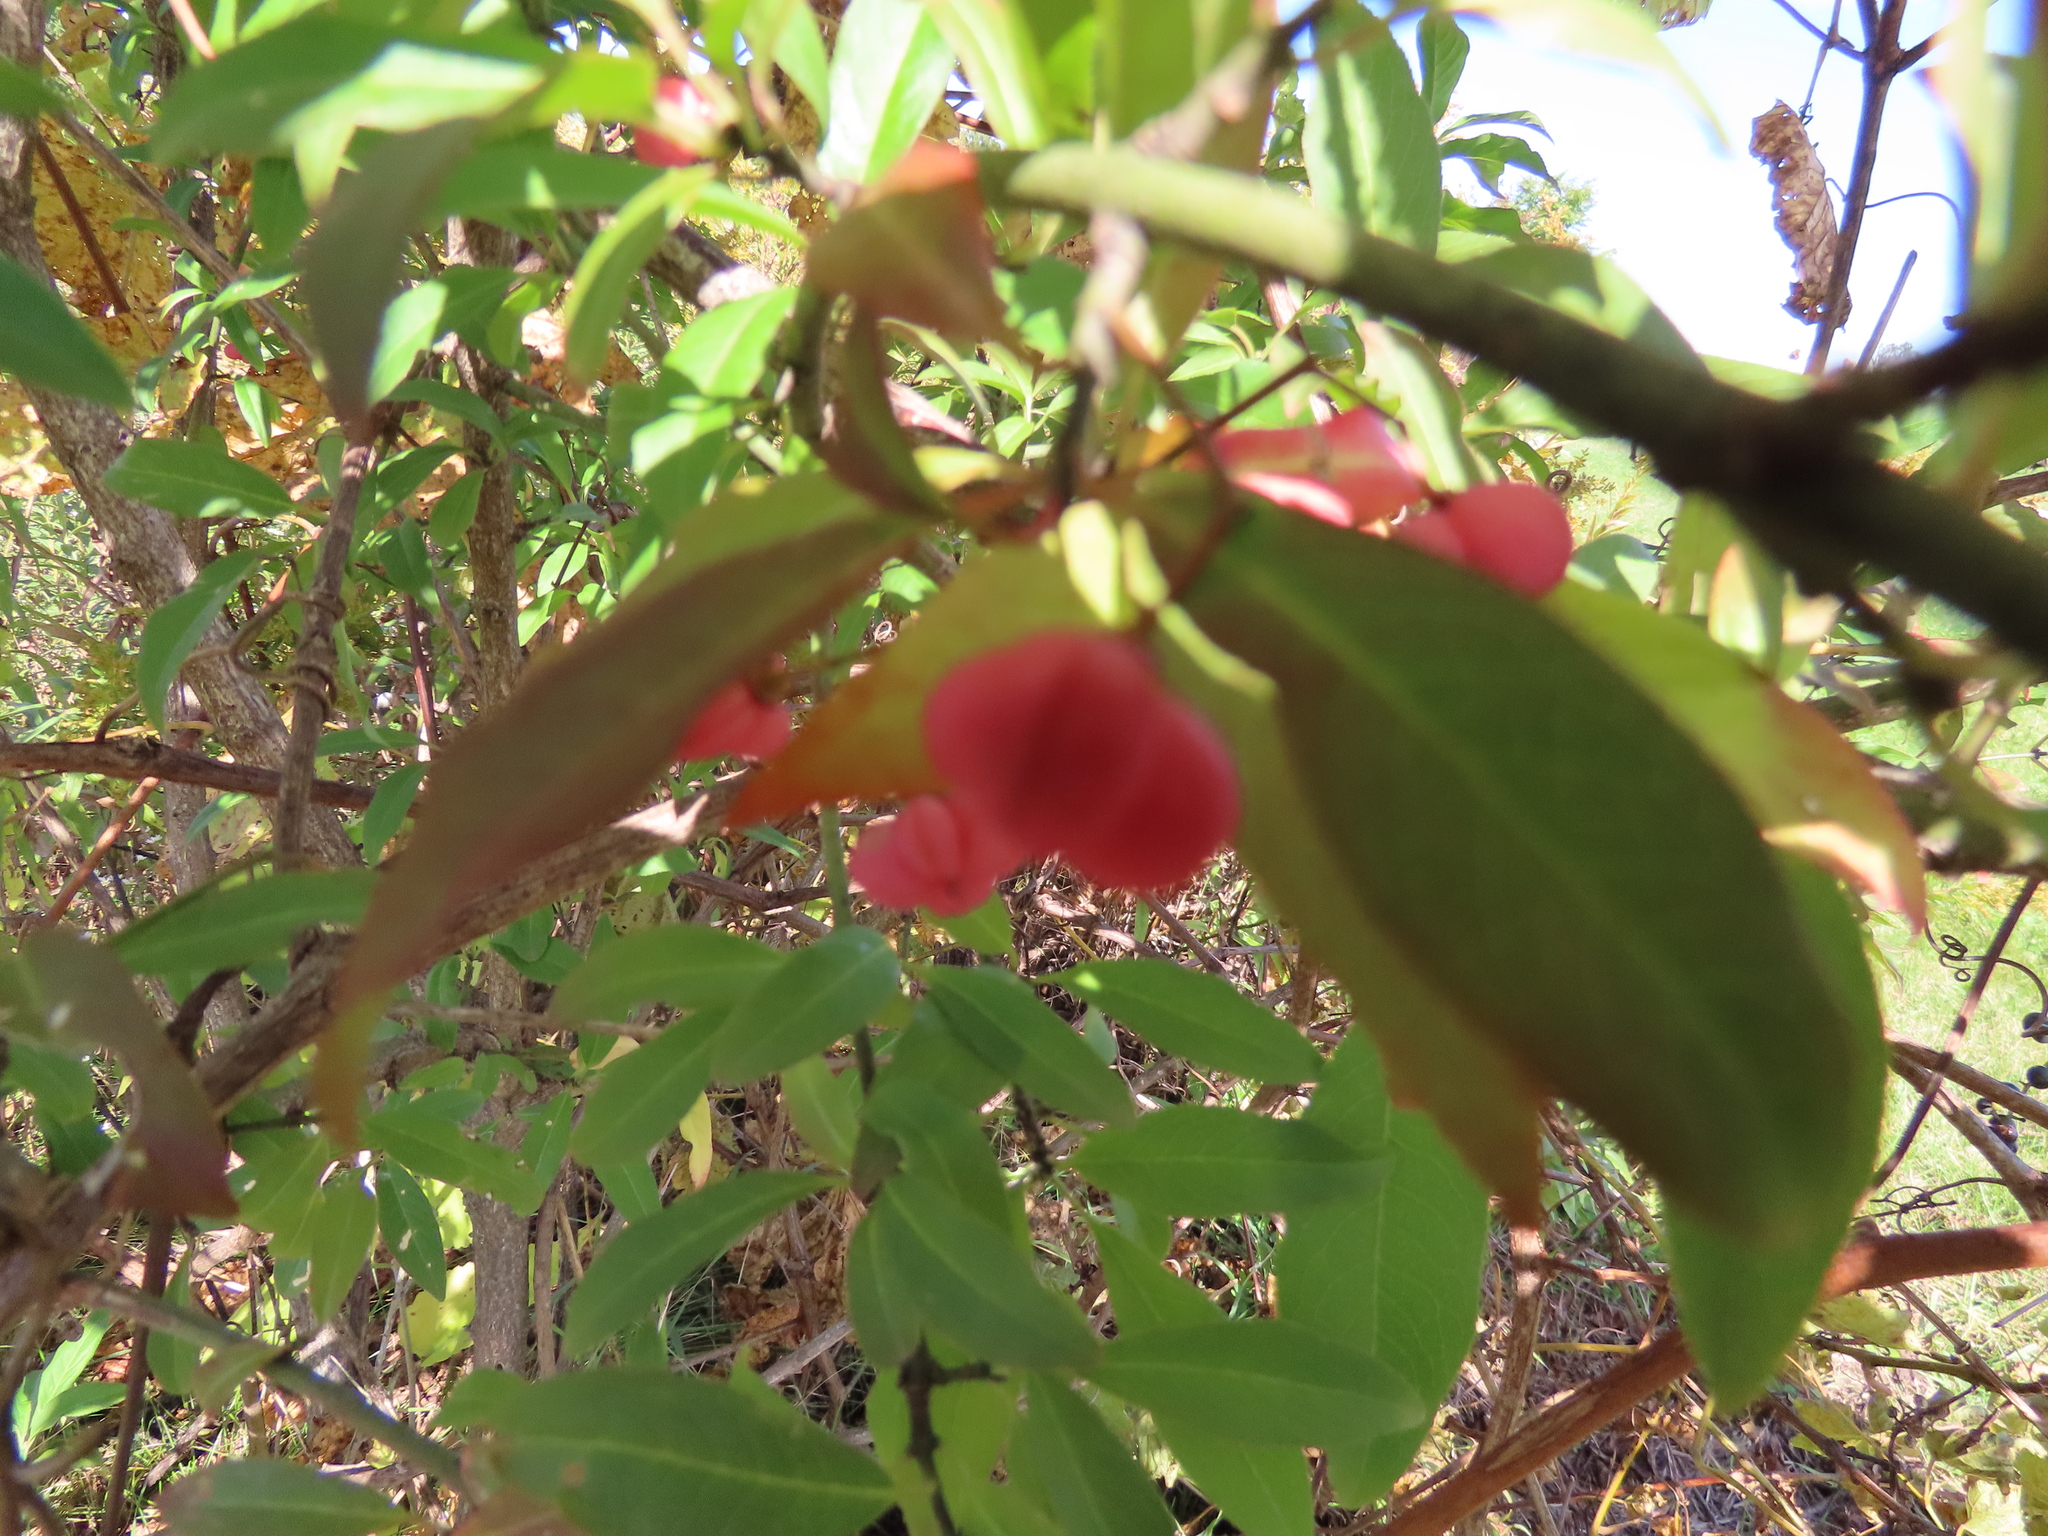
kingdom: Plantae
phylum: Tracheophyta
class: Magnoliopsida
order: Celastrales
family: Celastraceae
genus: Euonymus
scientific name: Euonymus europaeus
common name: Spindle
